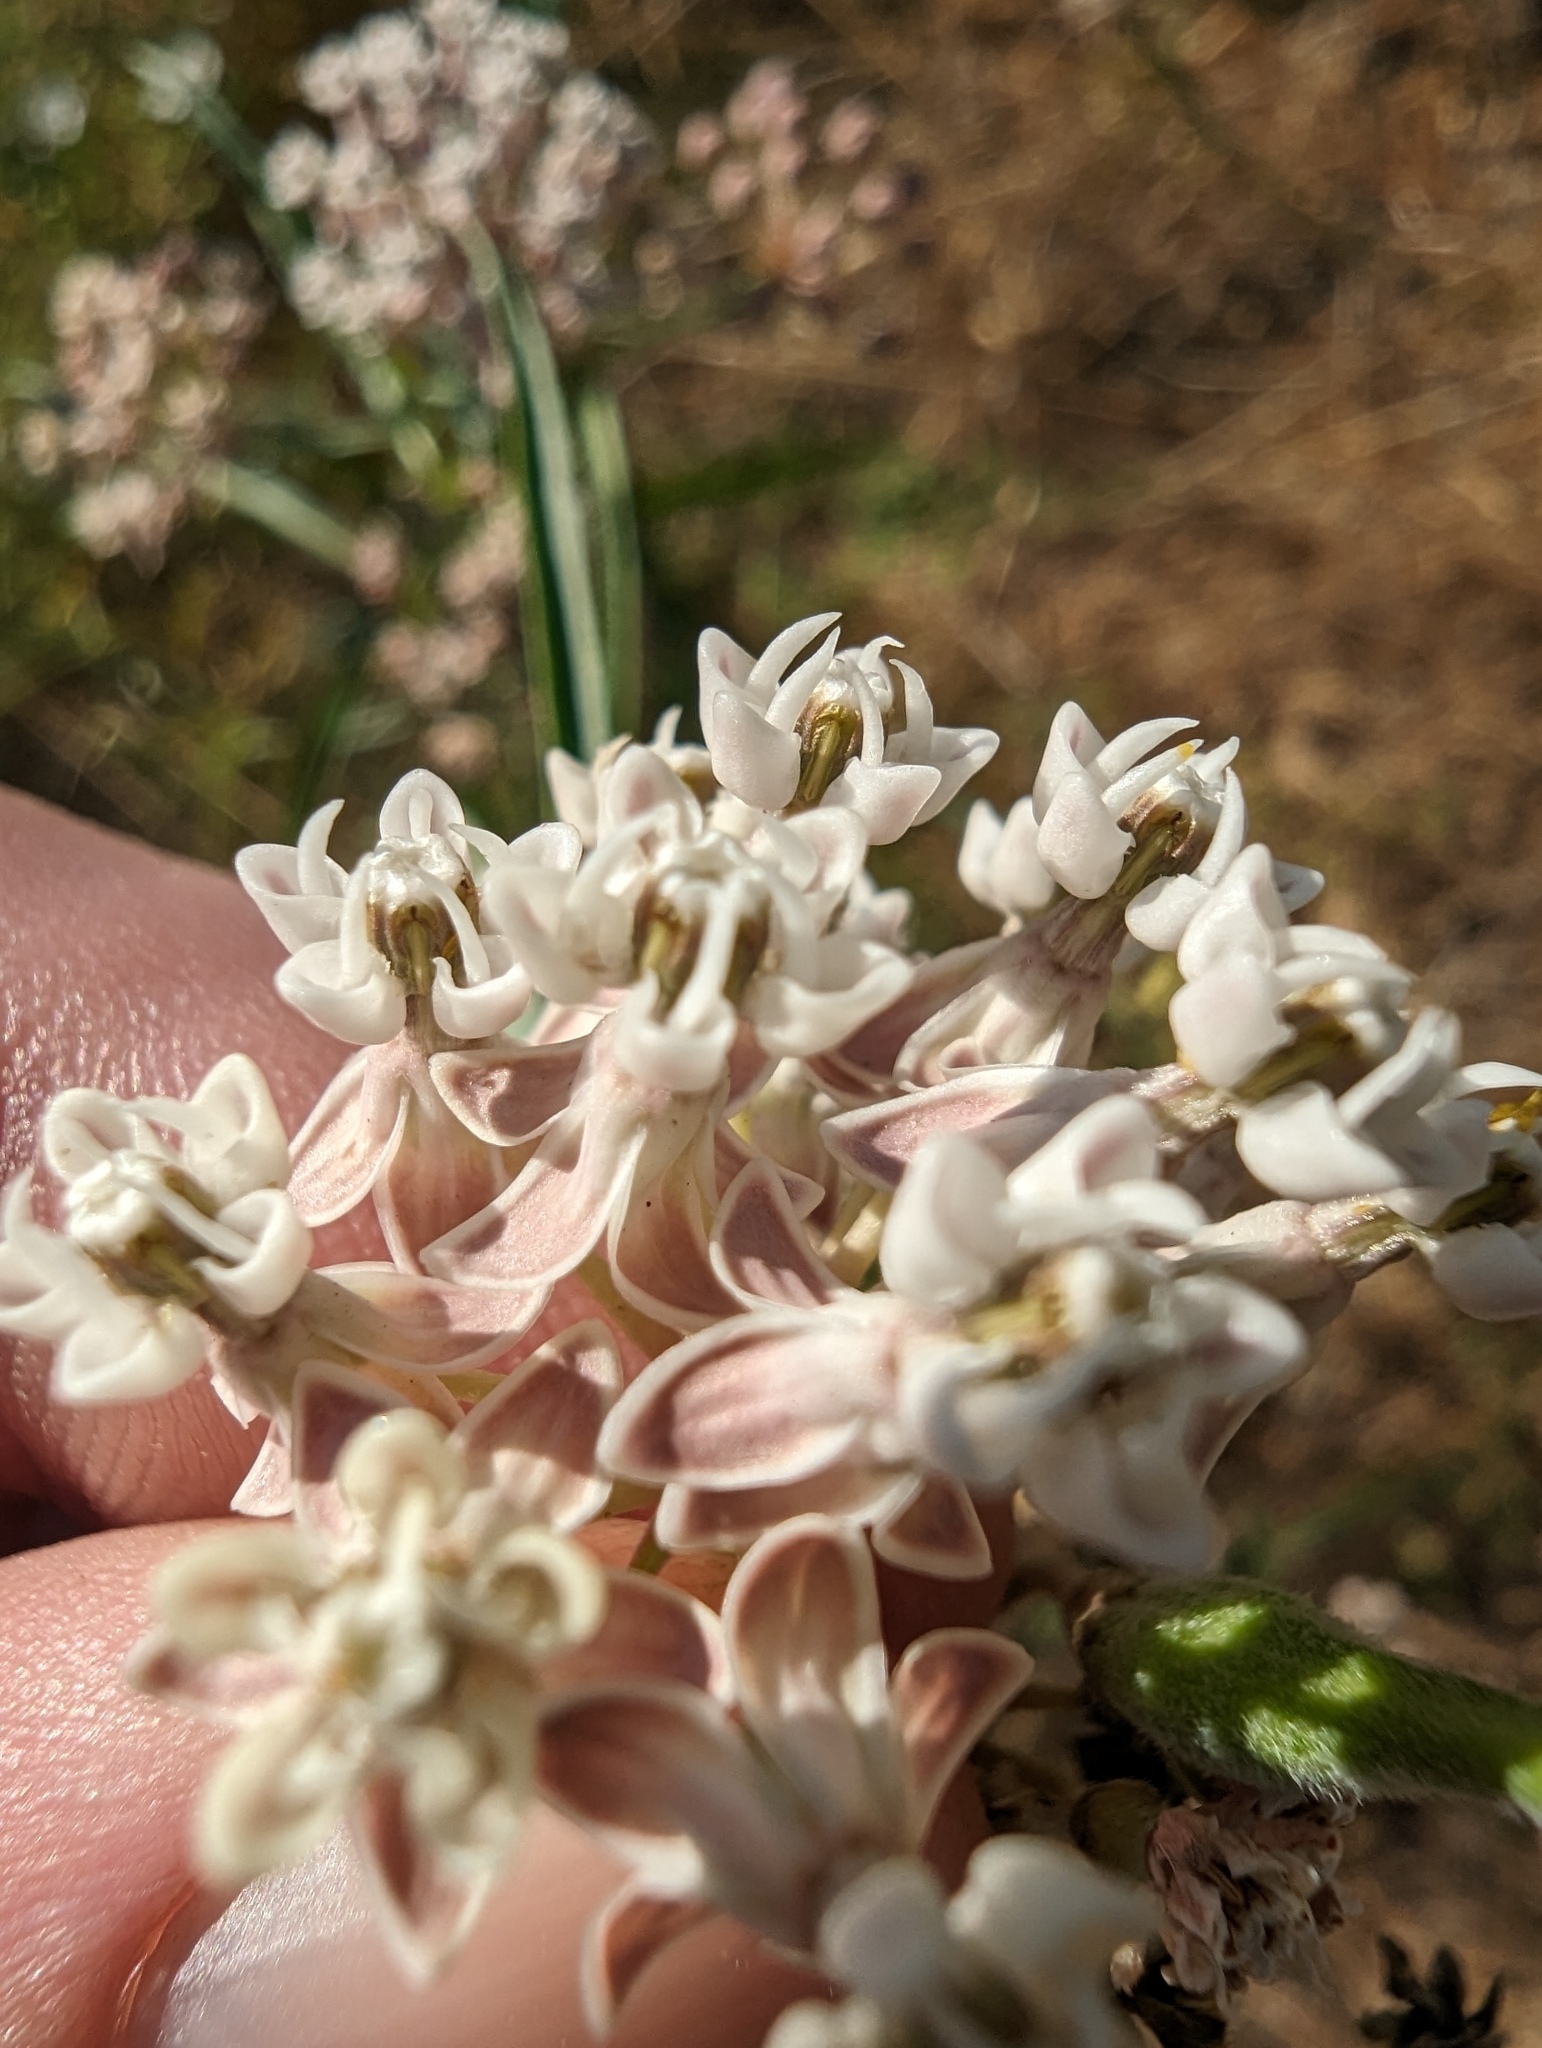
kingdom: Plantae
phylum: Tracheophyta
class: Magnoliopsida
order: Gentianales
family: Apocynaceae
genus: Asclepias
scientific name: Asclepias fascicularis
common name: Mexican milkweed
